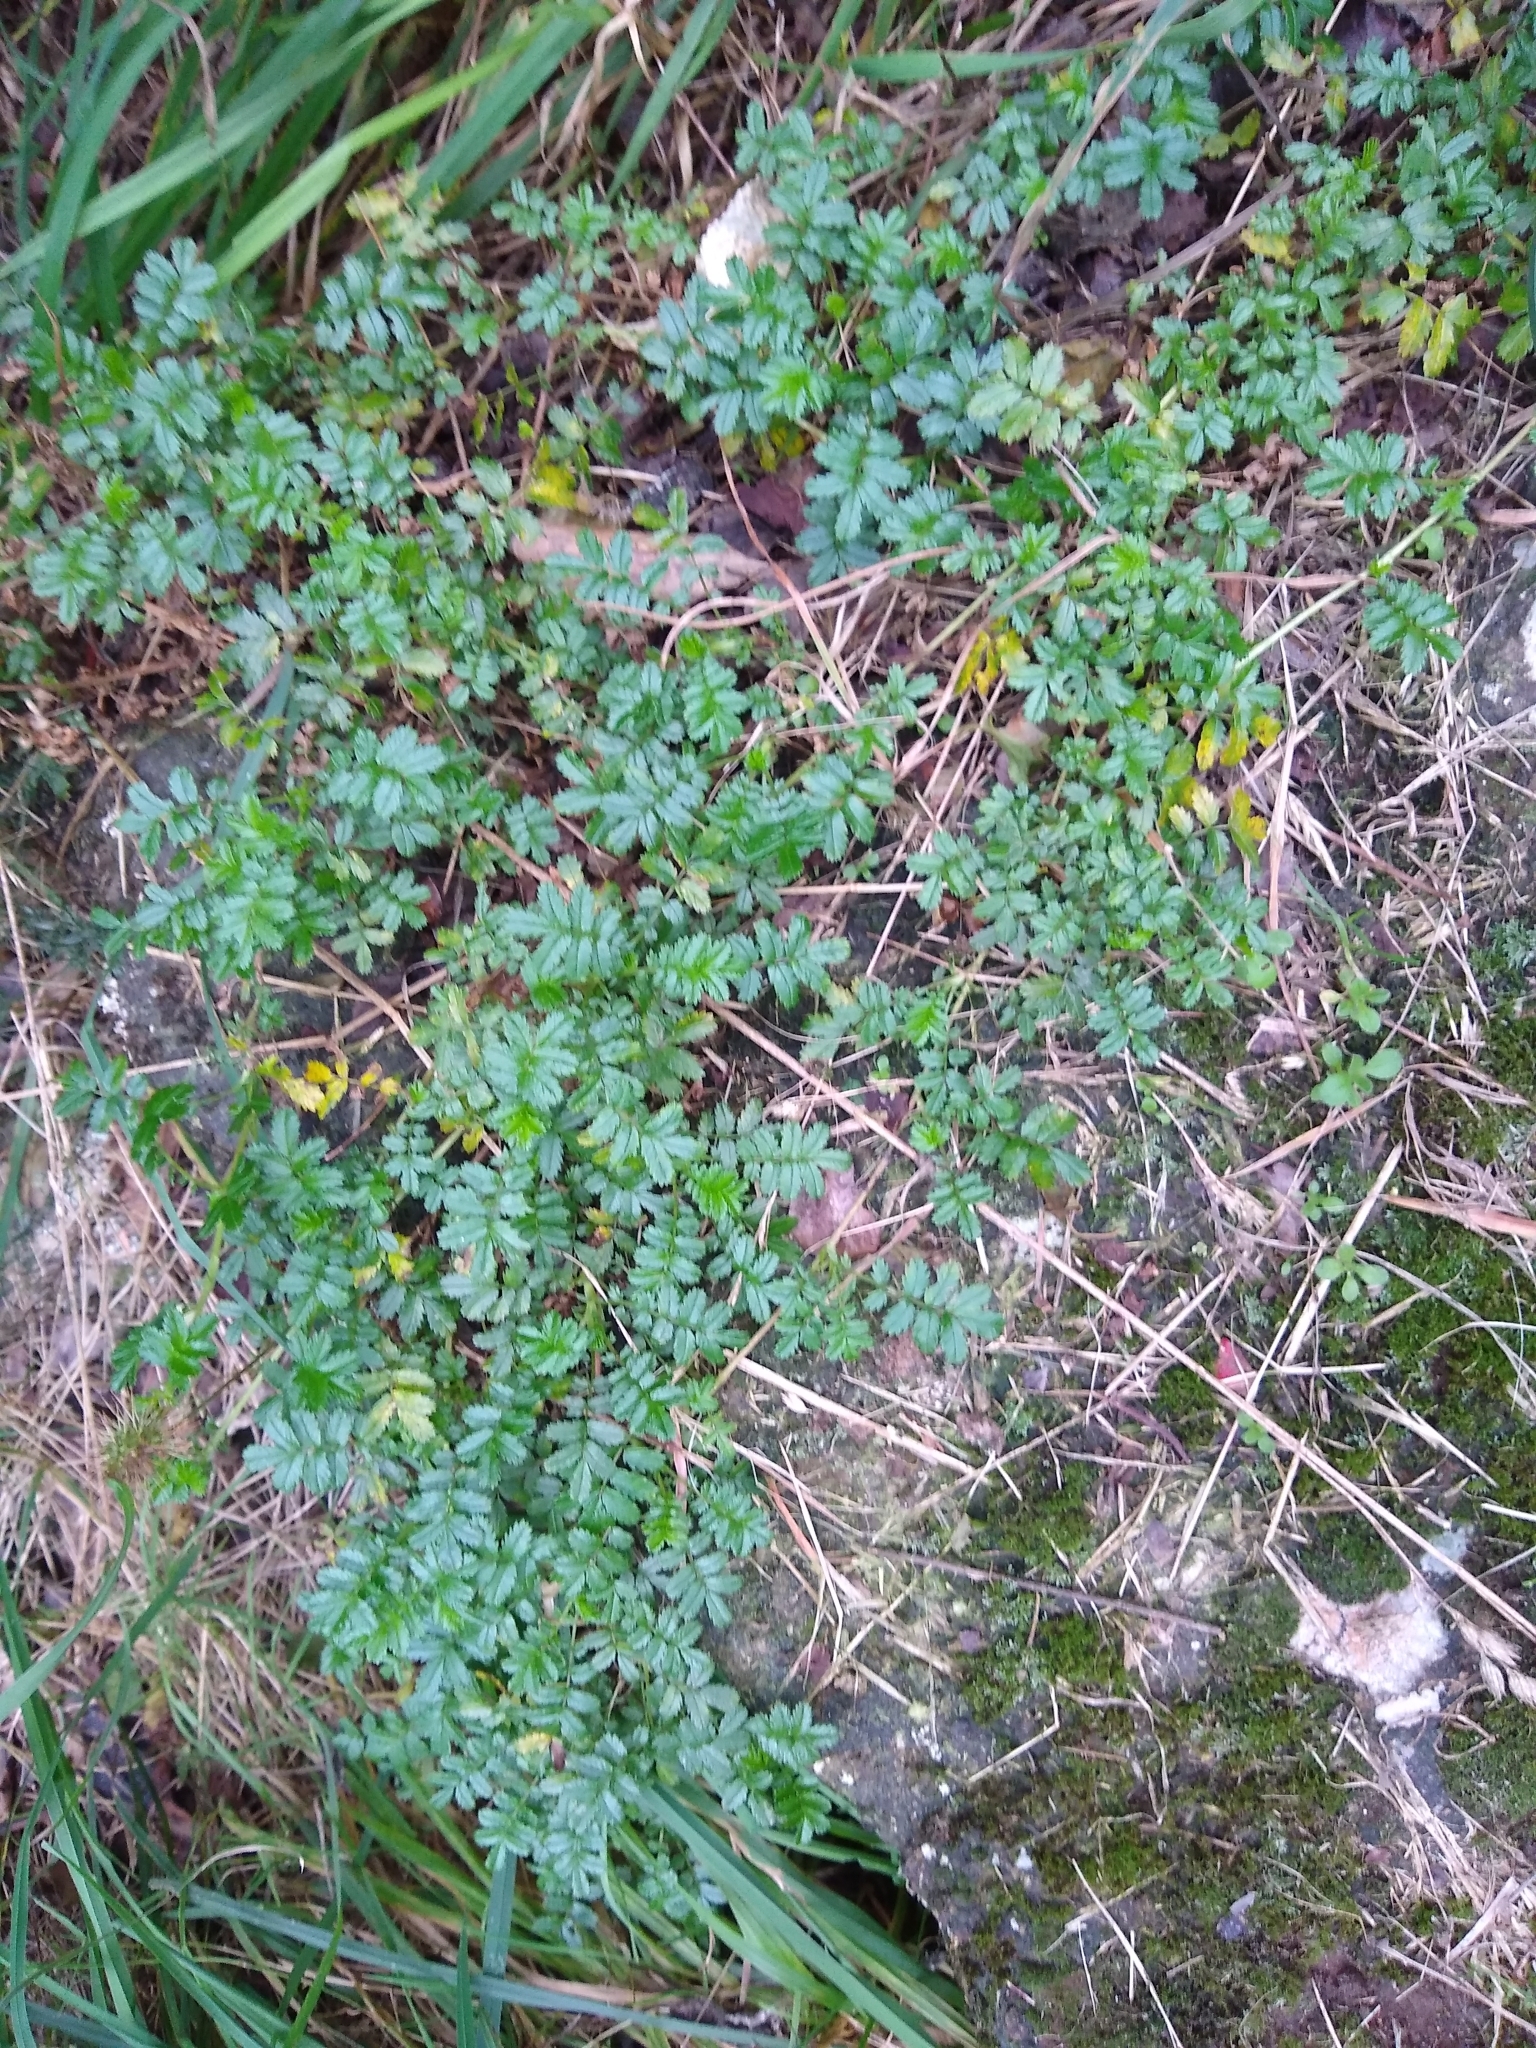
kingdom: Plantae
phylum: Tracheophyta
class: Magnoliopsida
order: Rosales
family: Rosaceae
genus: Acaena
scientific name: Acaena anserinifolia
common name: Bronze pirri-pirri-bur
